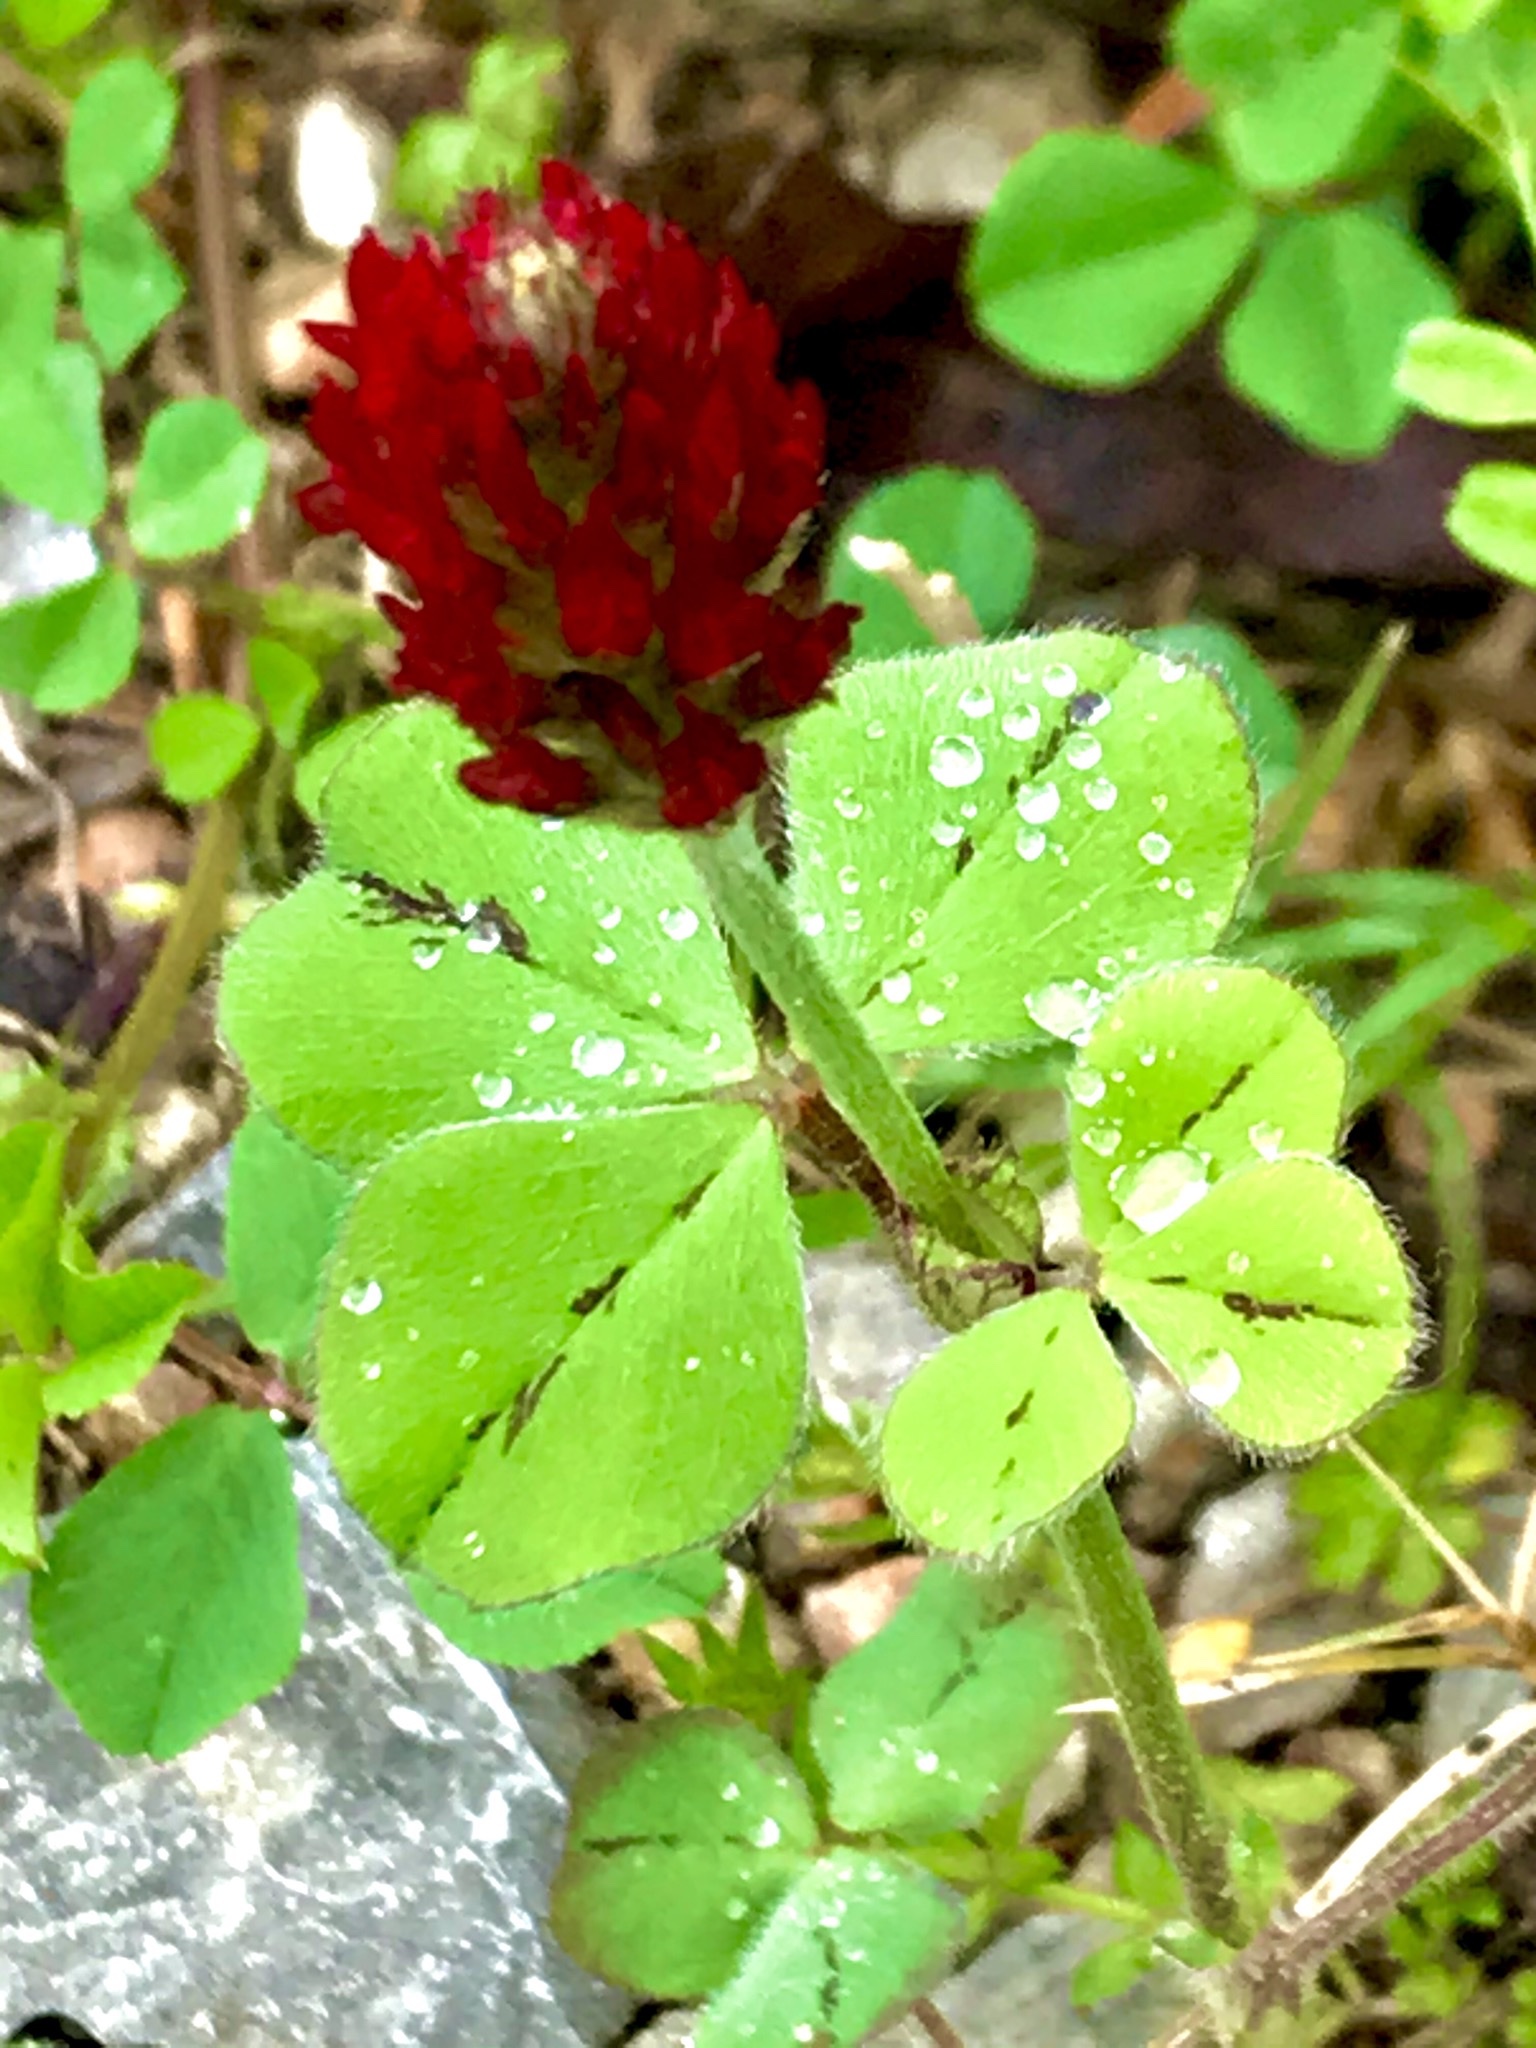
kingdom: Plantae
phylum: Tracheophyta
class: Magnoliopsida
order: Fabales
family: Fabaceae
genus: Trifolium
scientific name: Trifolium incarnatum
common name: Crimson clover
